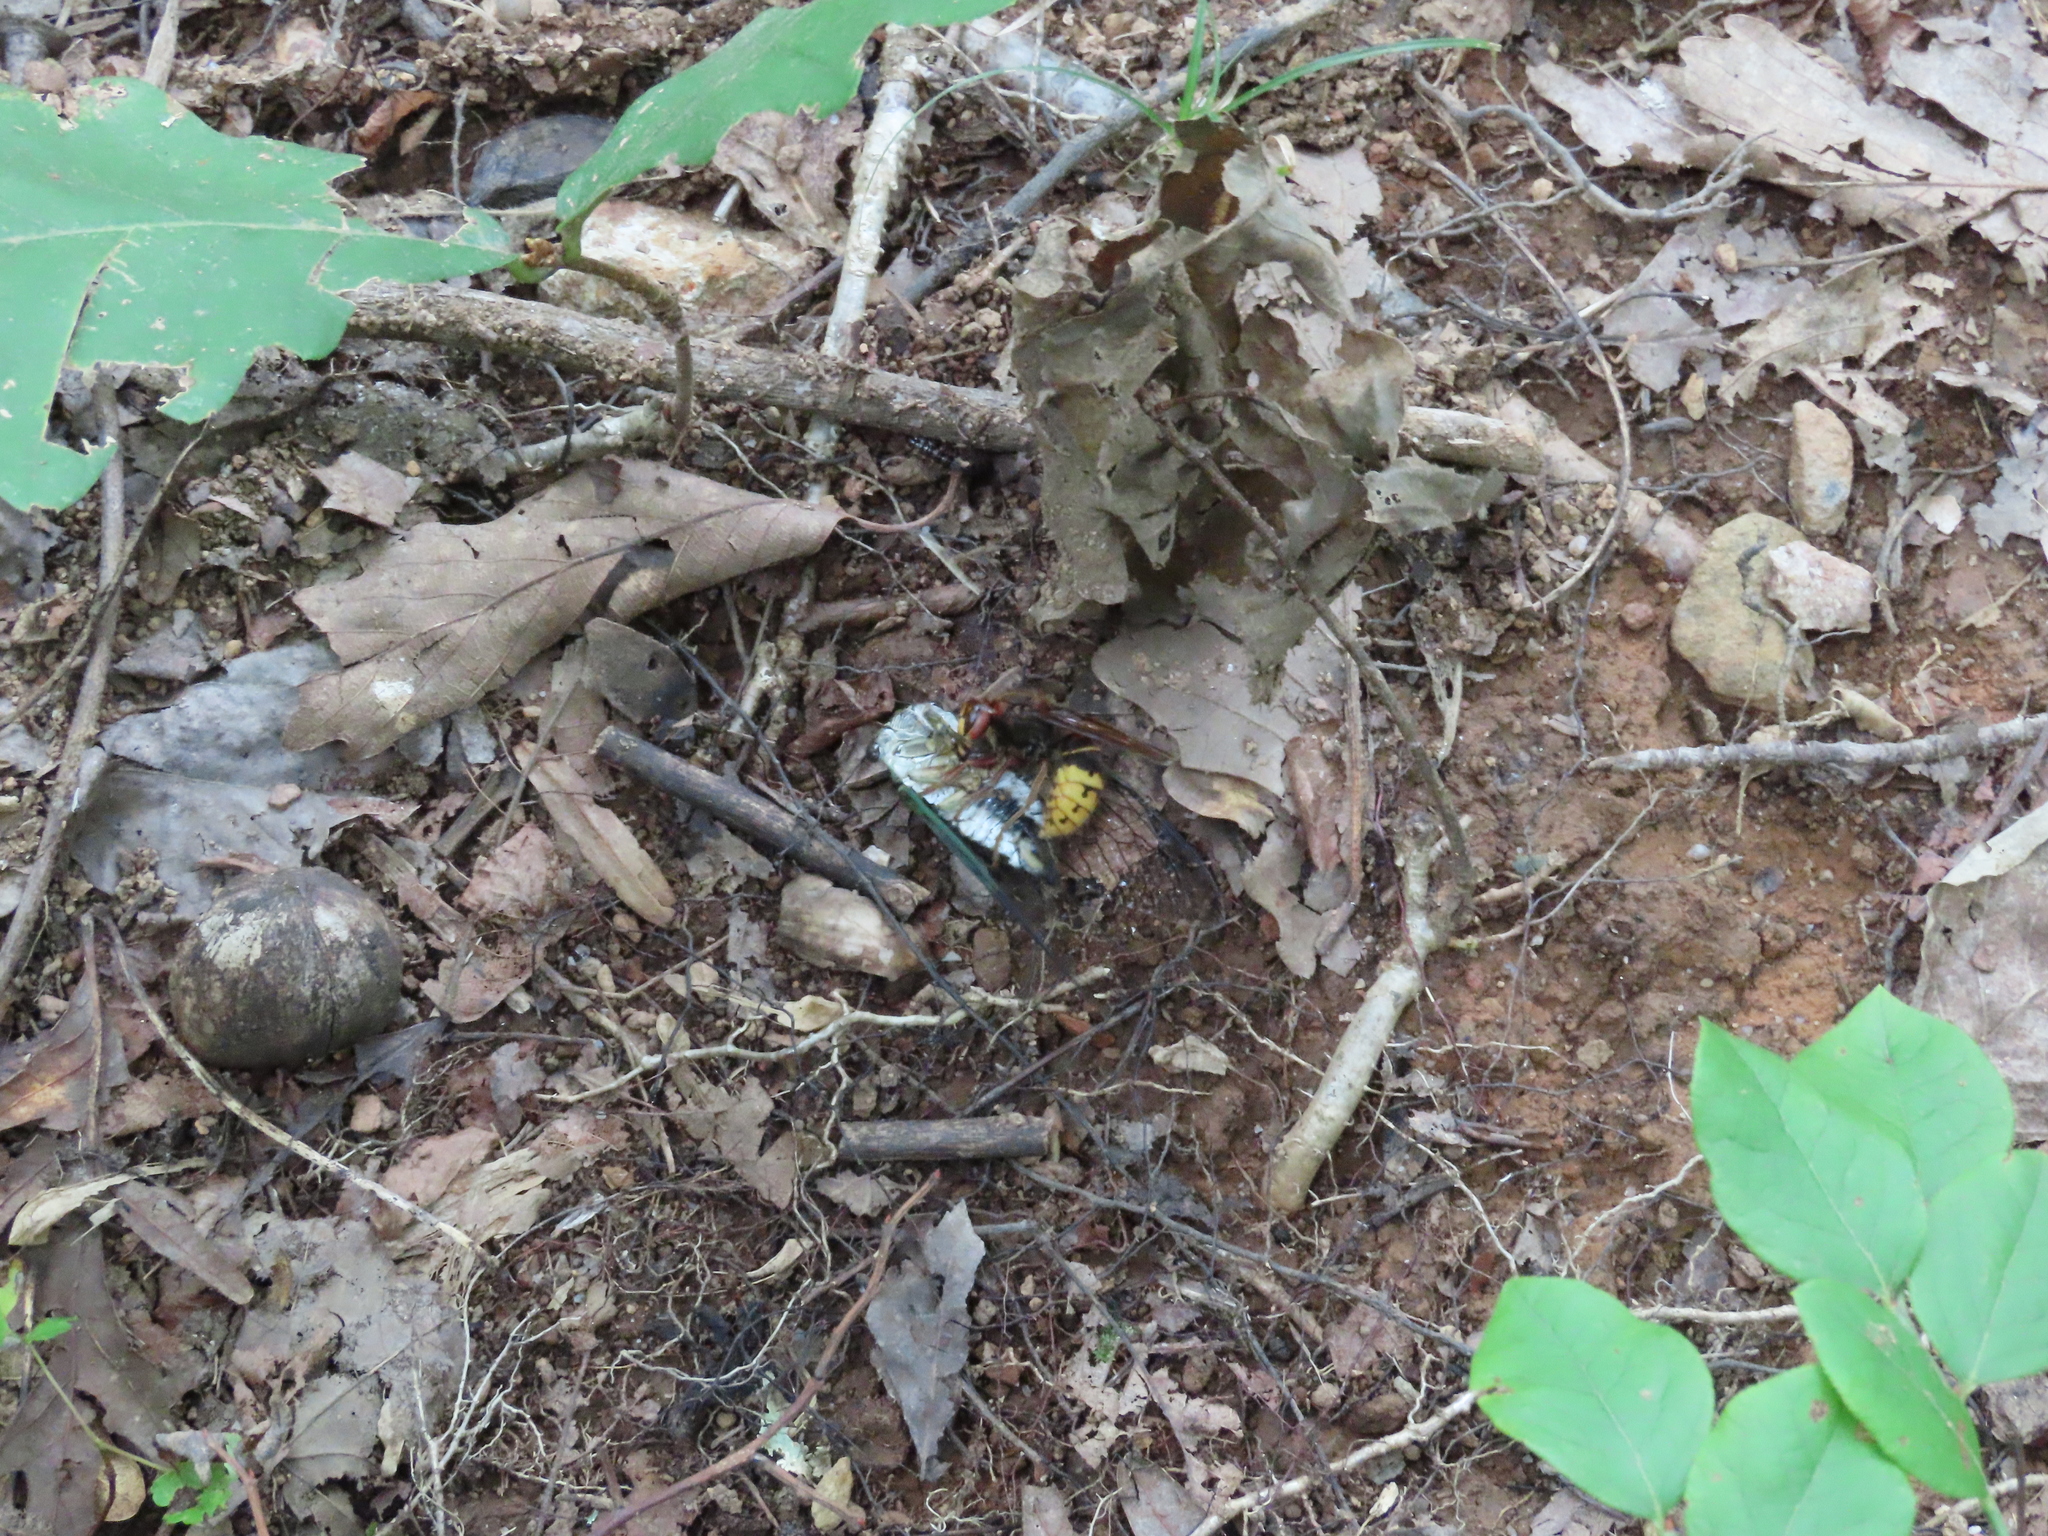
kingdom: Animalia
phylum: Arthropoda
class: Insecta
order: Hymenoptera
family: Vespidae
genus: Vespa
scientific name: Vespa crabro
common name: Hornet
